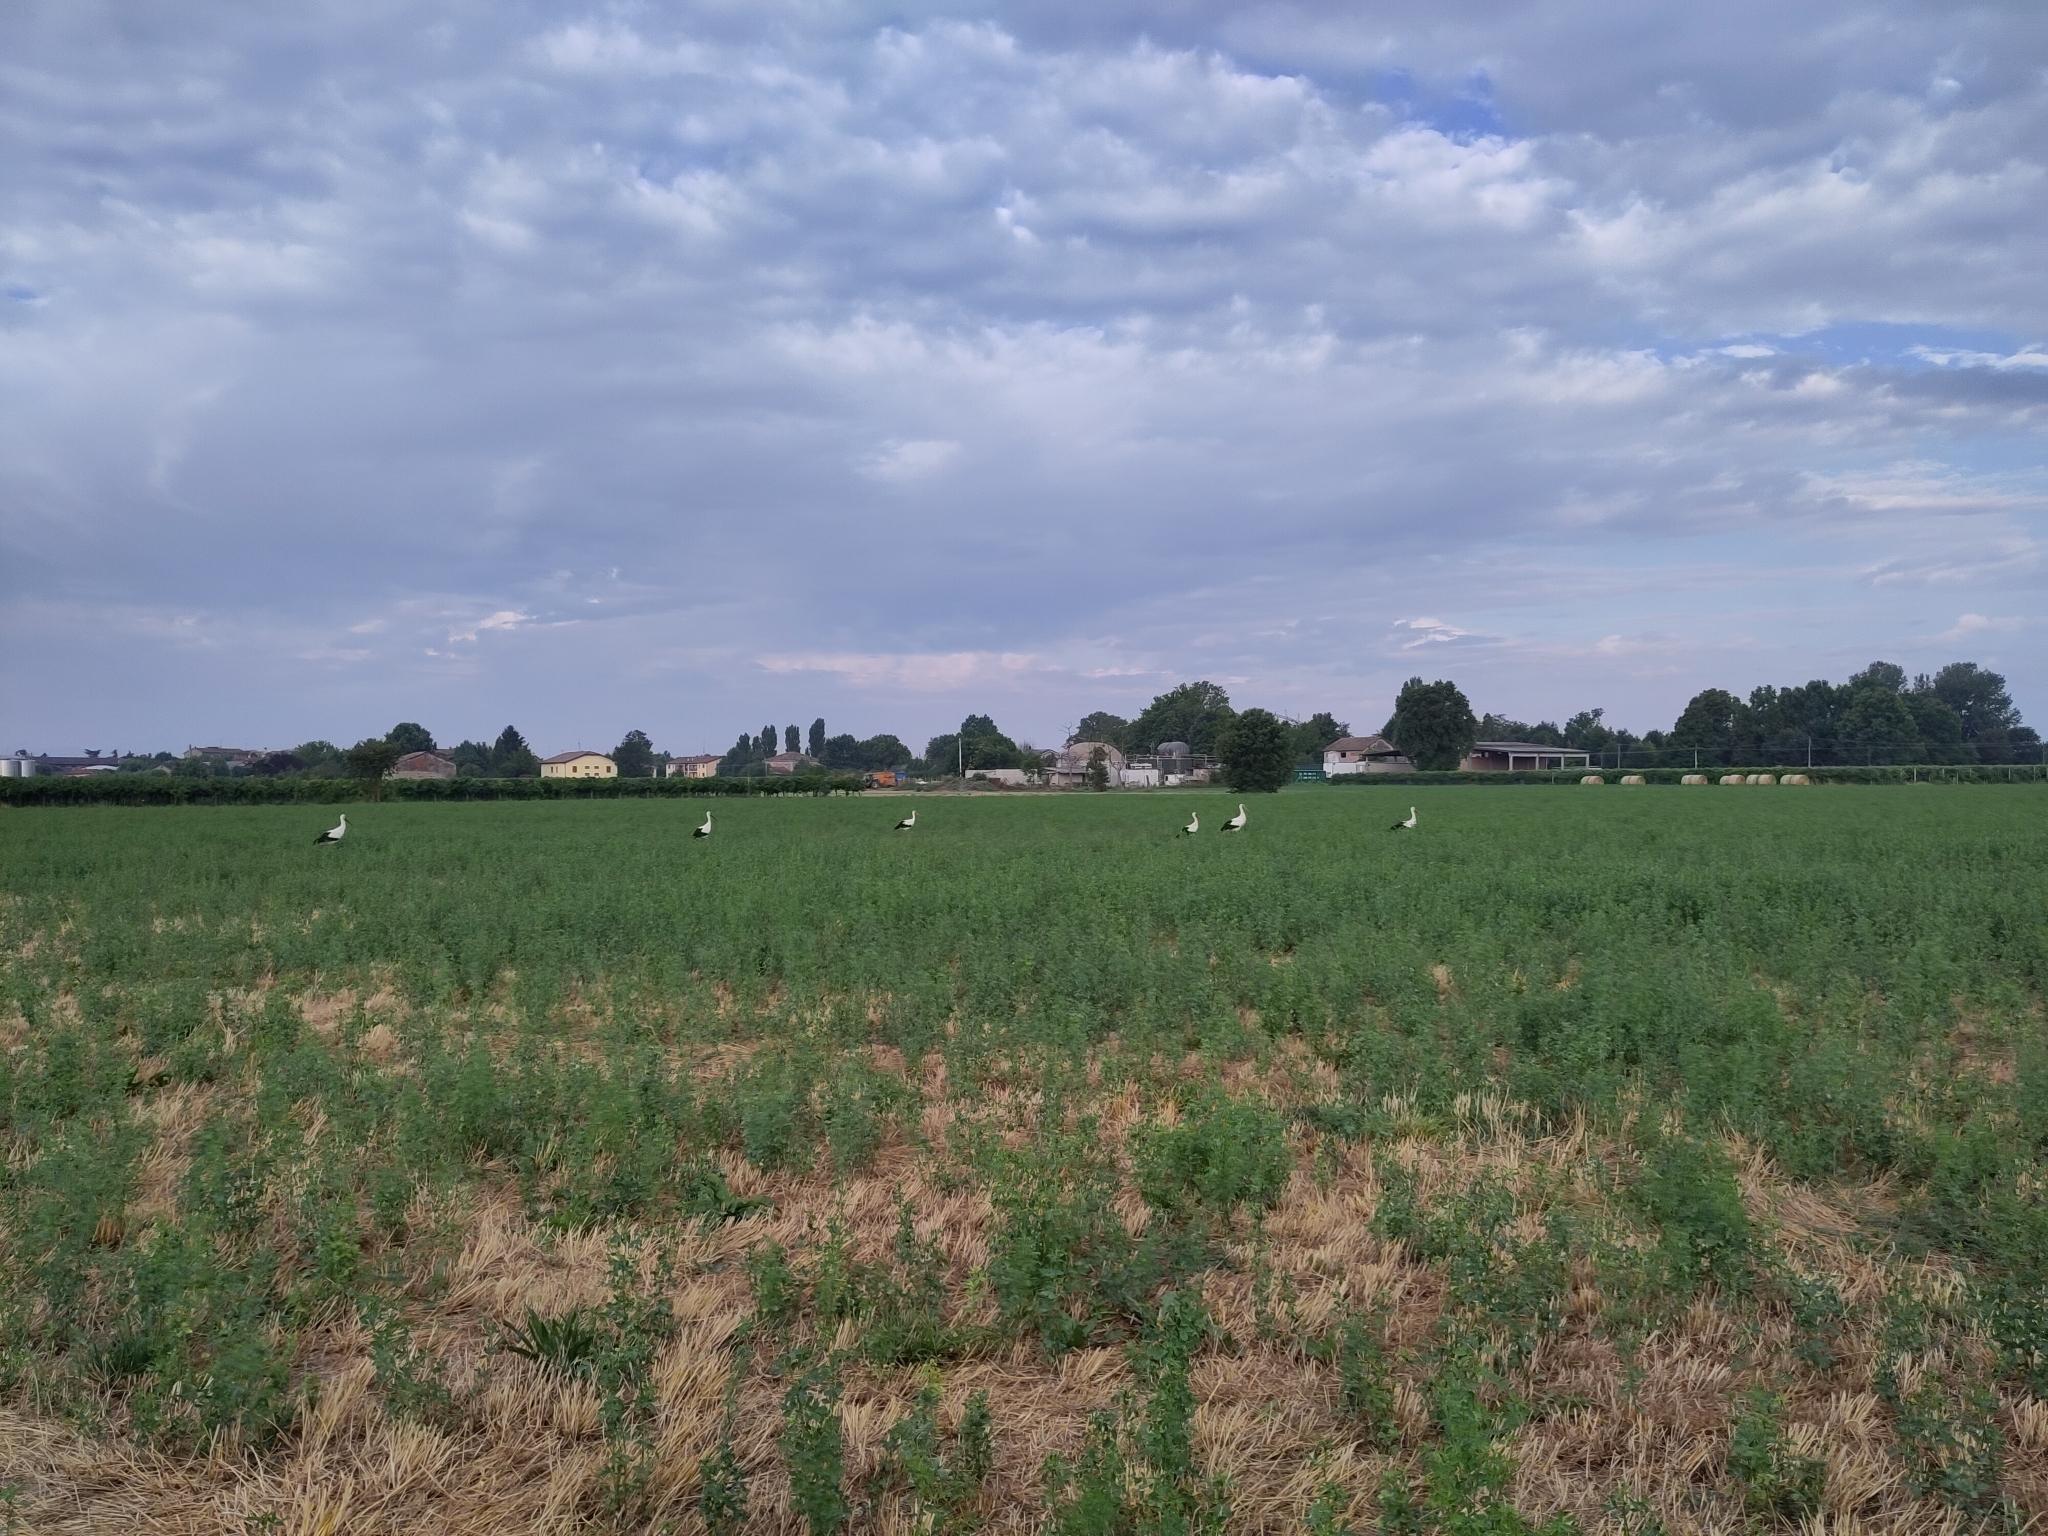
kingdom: Animalia
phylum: Chordata
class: Aves
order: Ciconiiformes
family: Ciconiidae
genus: Ciconia
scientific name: Ciconia ciconia
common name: White stork
